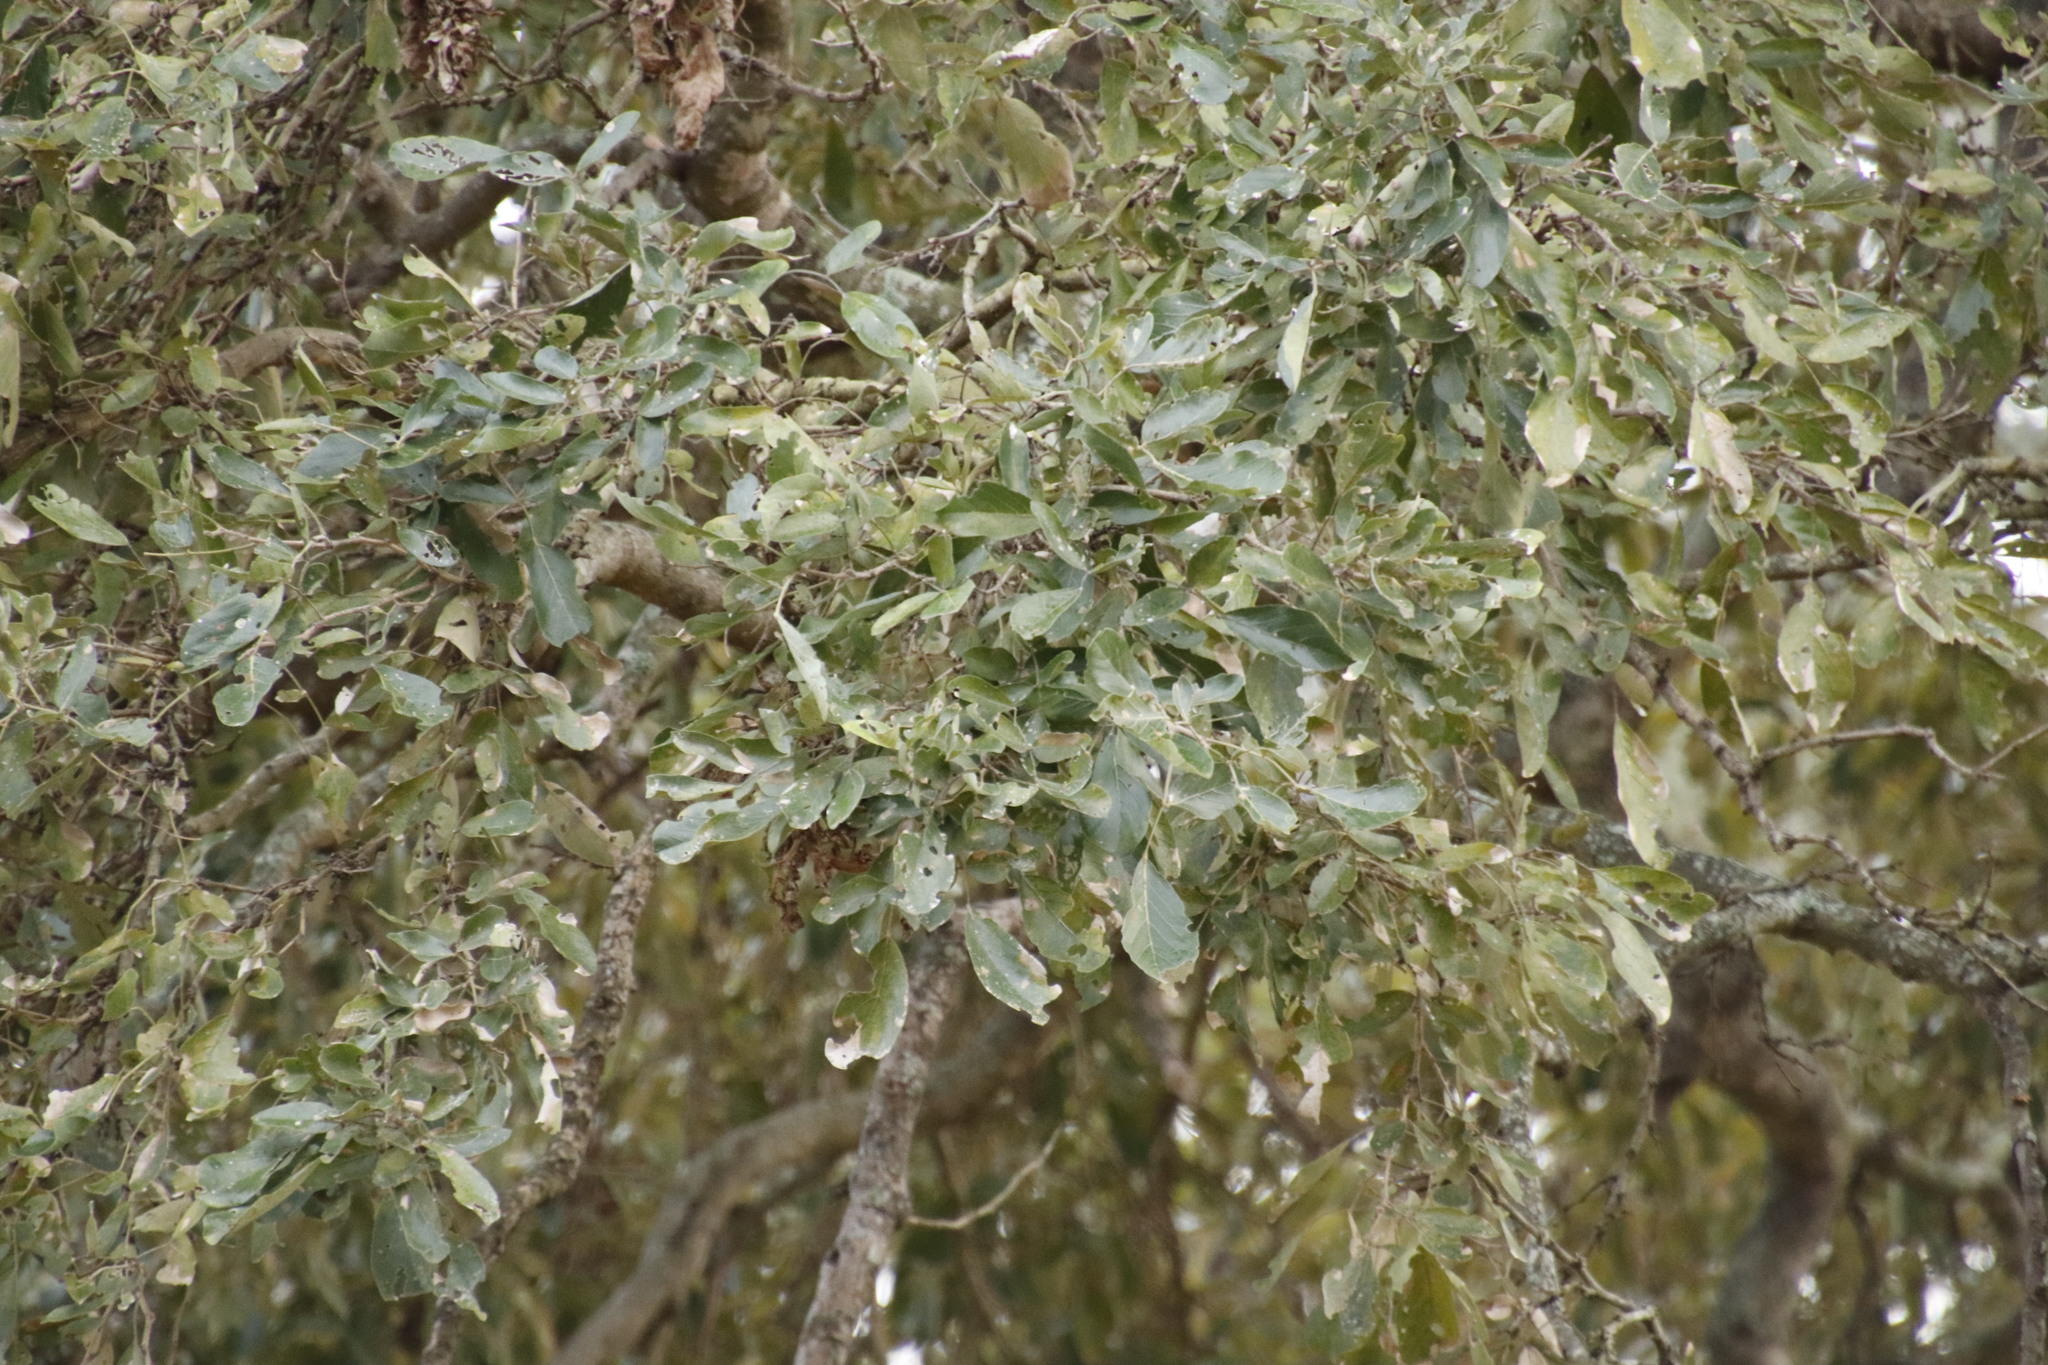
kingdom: Plantae
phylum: Tracheophyta
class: Magnoliopsida
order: Ericales
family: Ebenaceae
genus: Diospyros
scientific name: Diospyros mespiliformis
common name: Ebony diospyros
